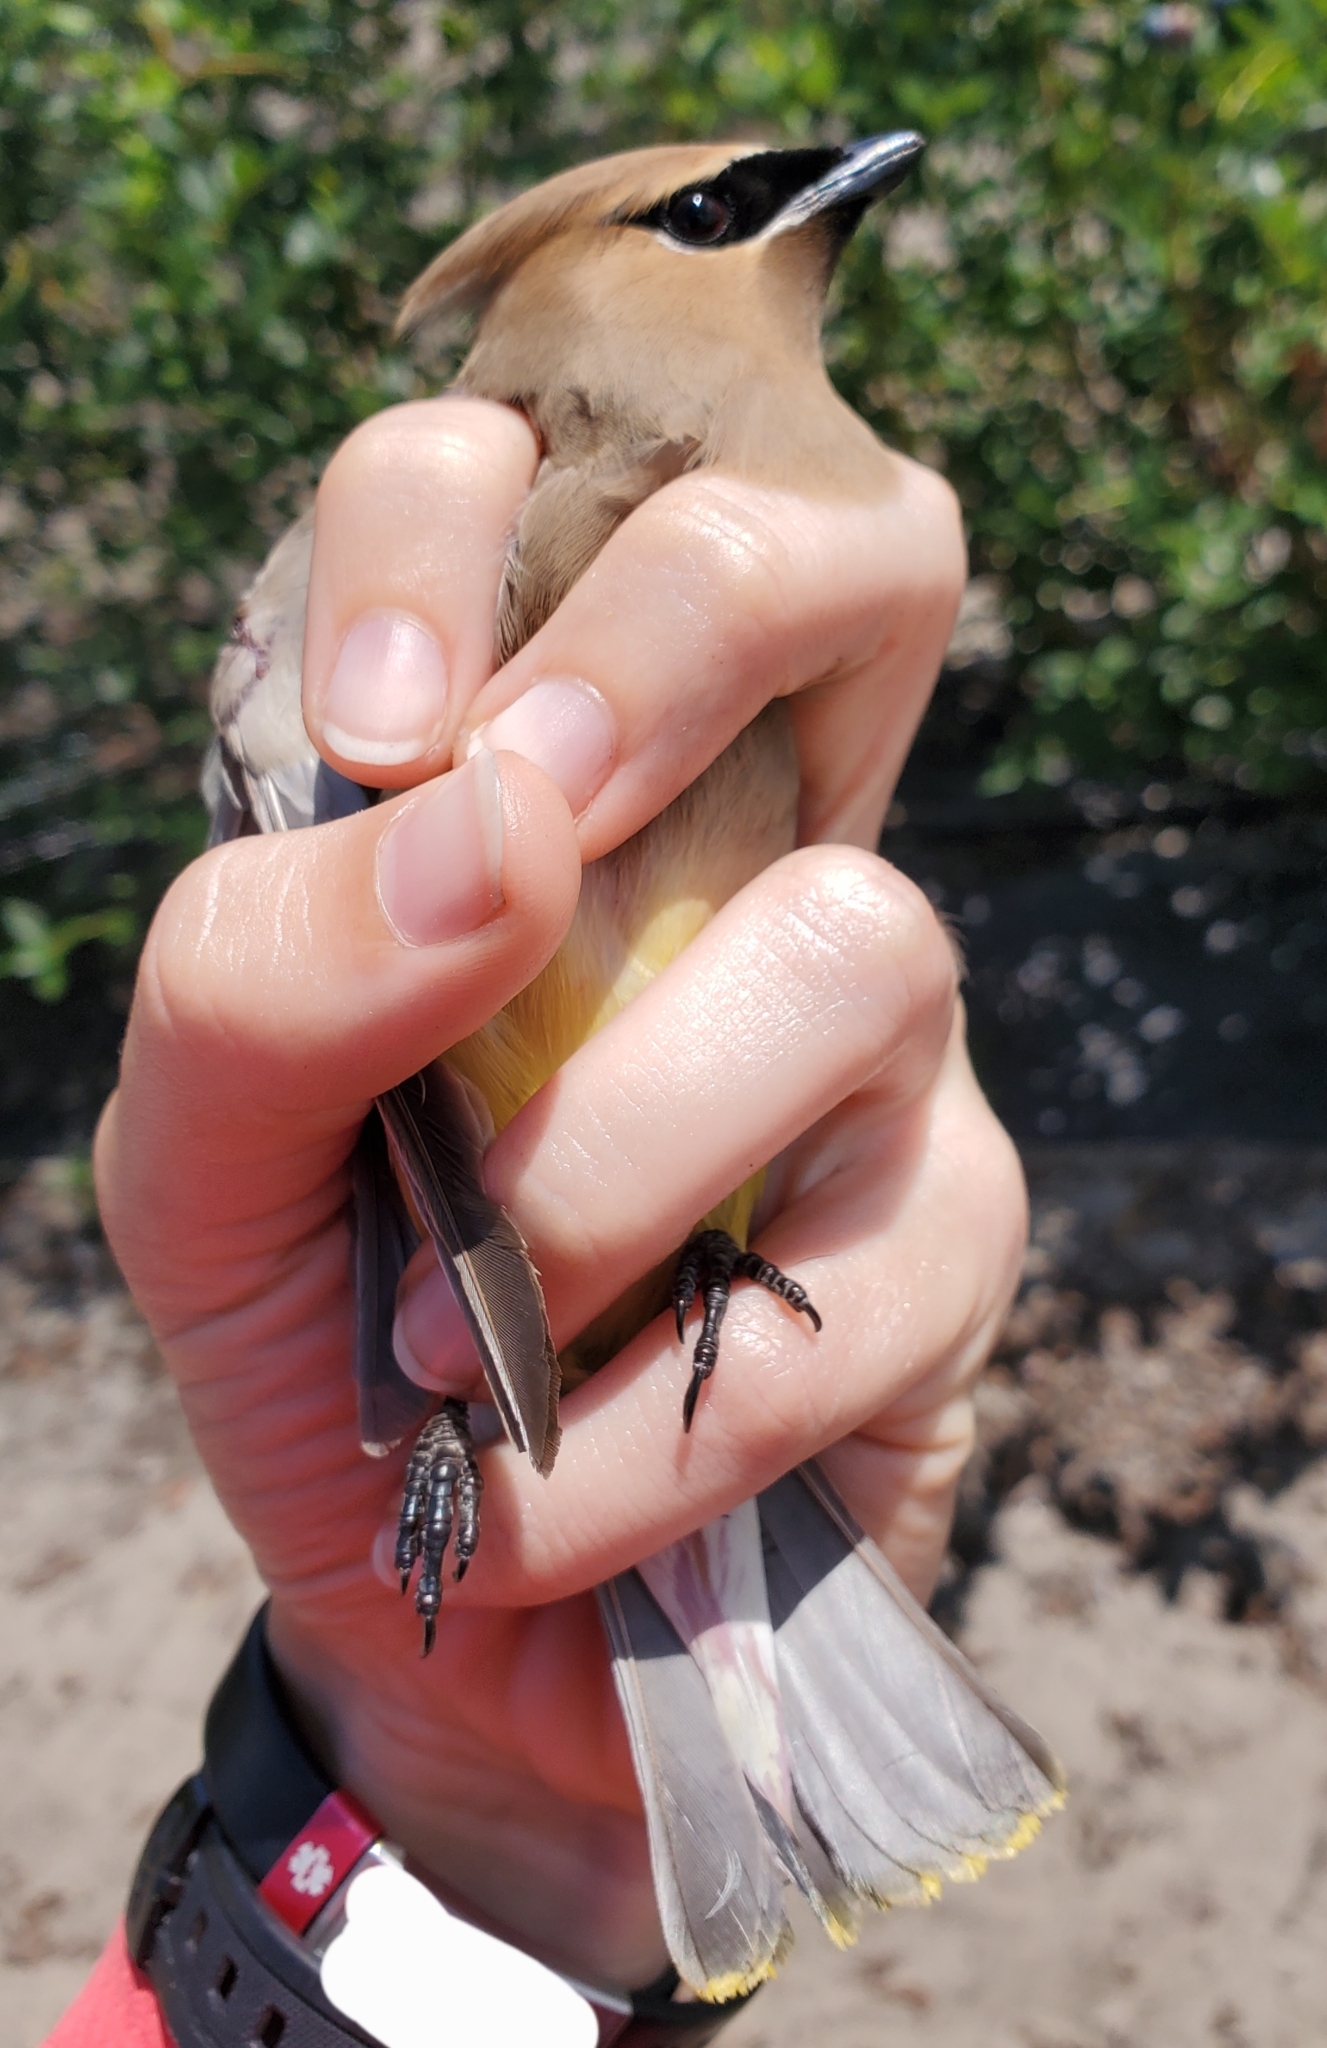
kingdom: Animalia
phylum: Chordata
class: Aves
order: Passeriformes
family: Bombycillidae
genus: Bombycilla
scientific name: Bombycilla cedrorum
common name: Cedar waxwing
